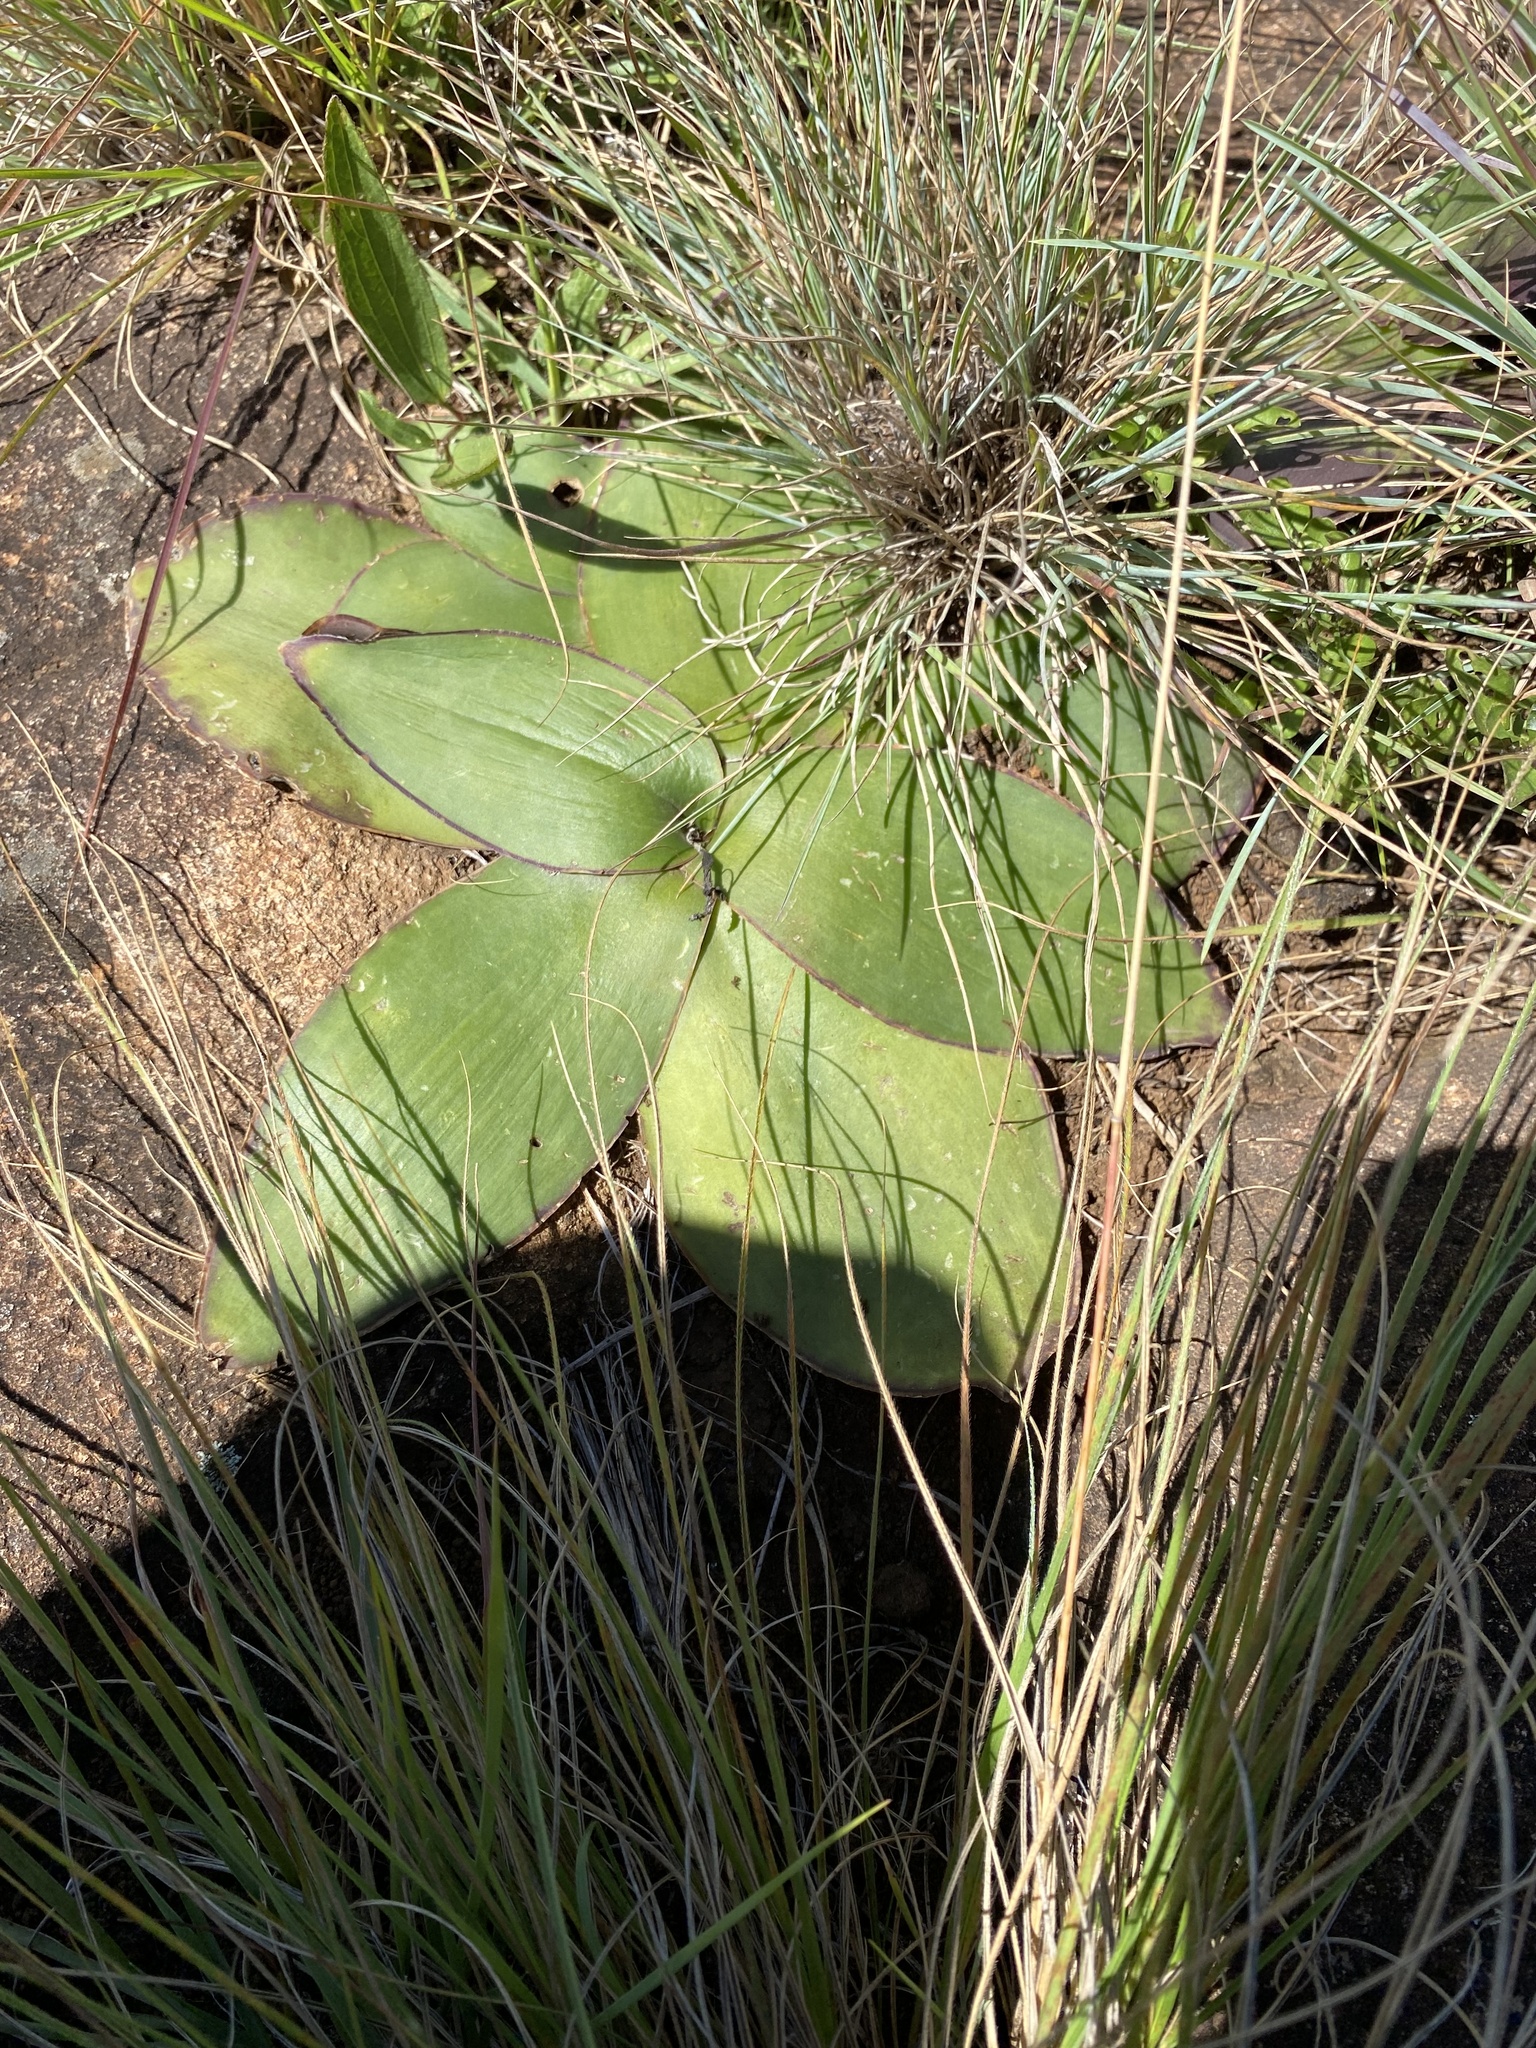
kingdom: Plantae
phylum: Tracheophyta
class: Liliopsida
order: Asparagales
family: Asparagaceae
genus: Ledebouria
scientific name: Ledebouria ovatifolia
